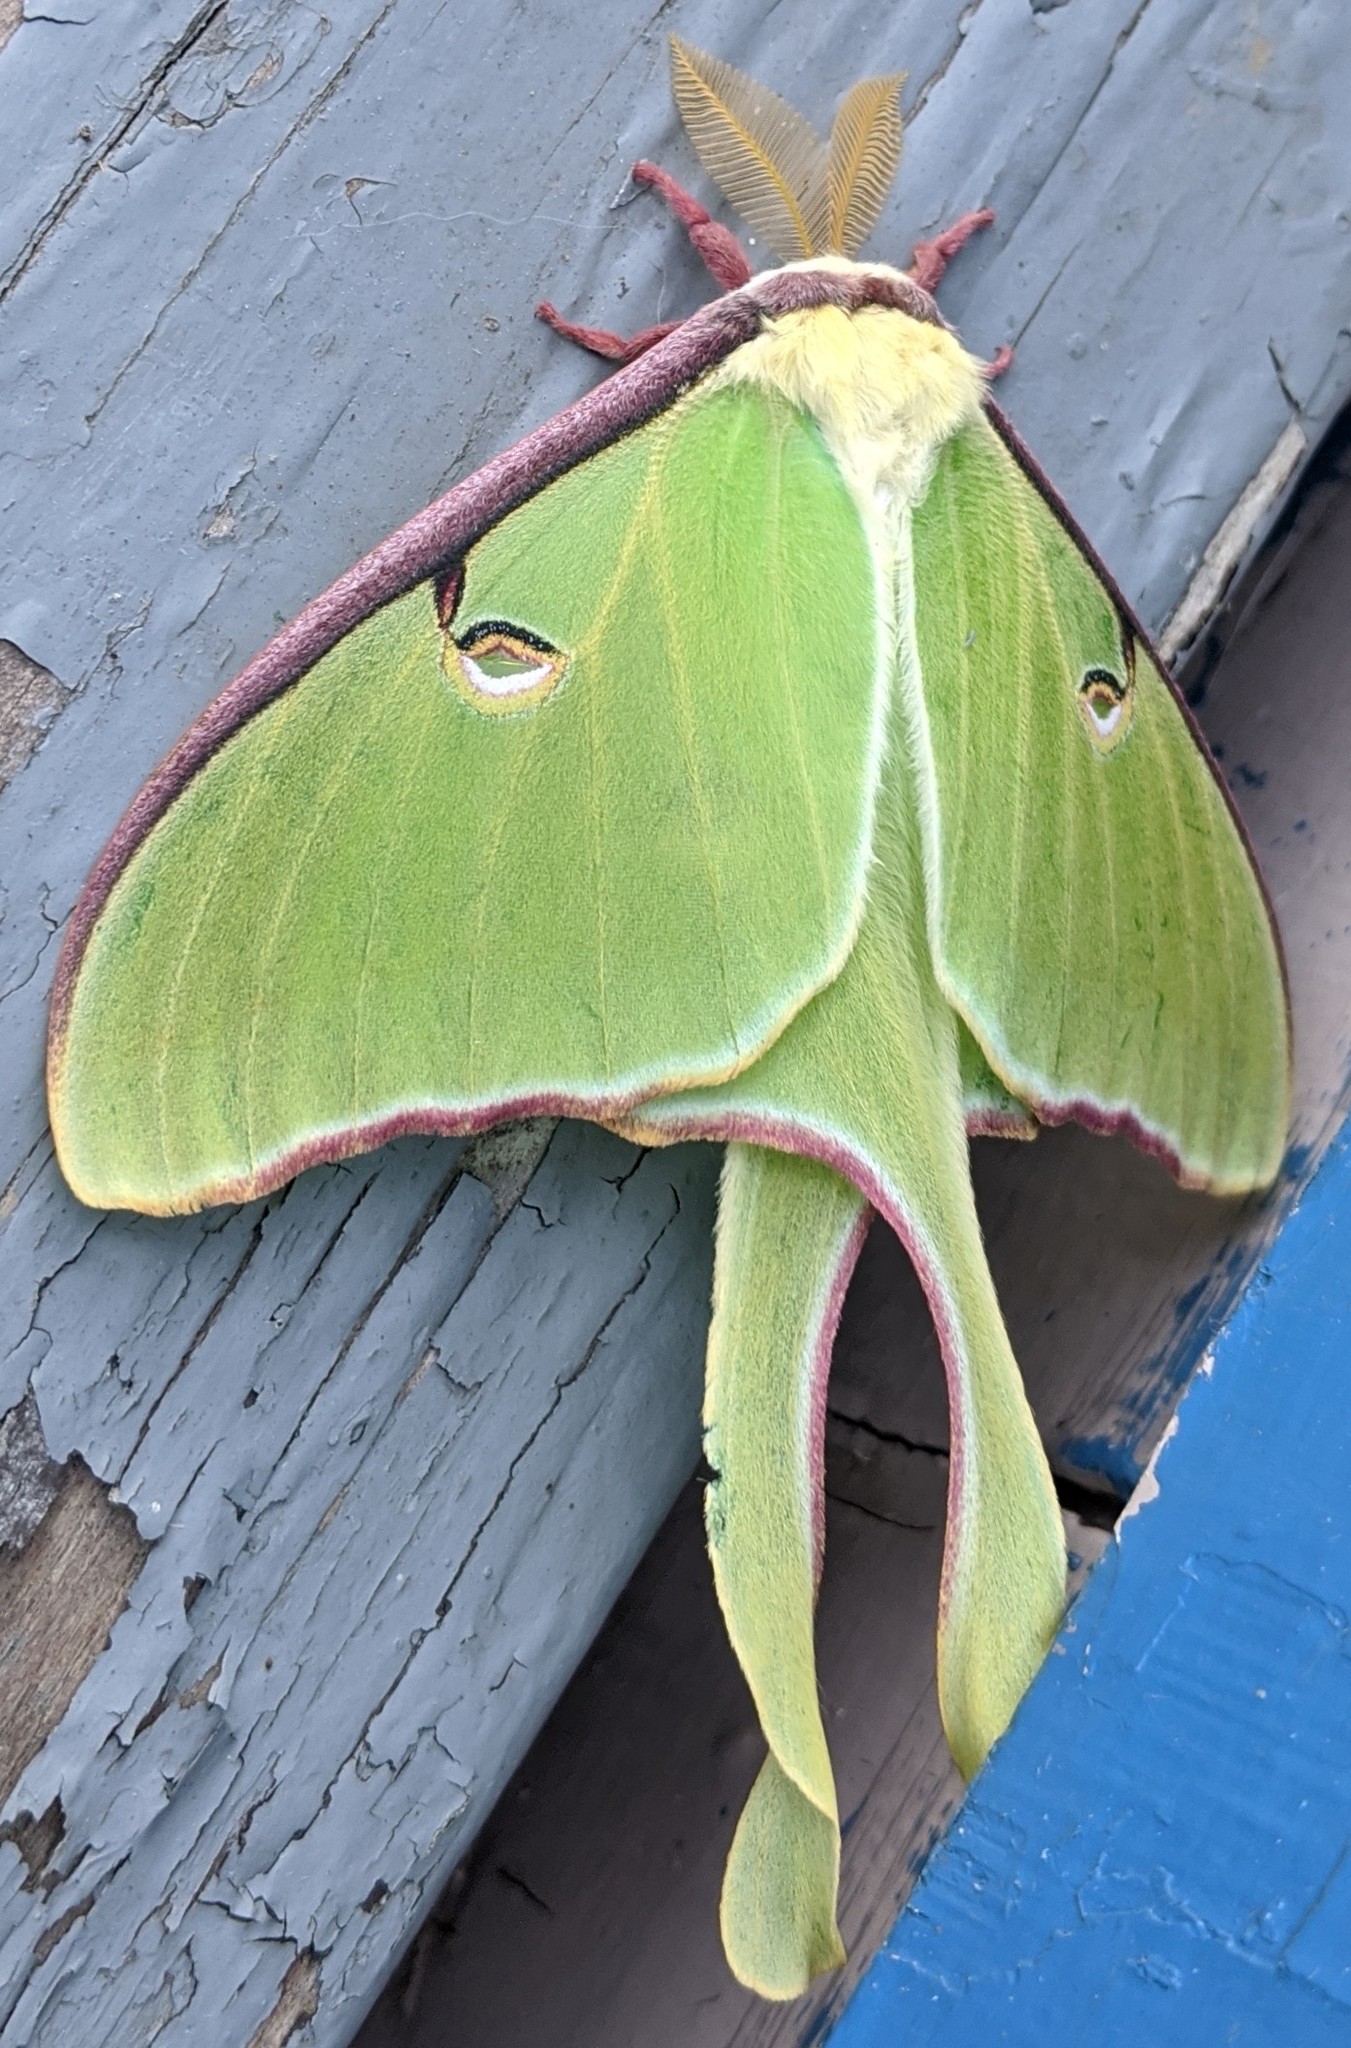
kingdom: Animalia
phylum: Arthropoda
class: Insecta
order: Lepidoptera
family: Saturniidae
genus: Actias
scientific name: Actias luna
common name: Luna moth
